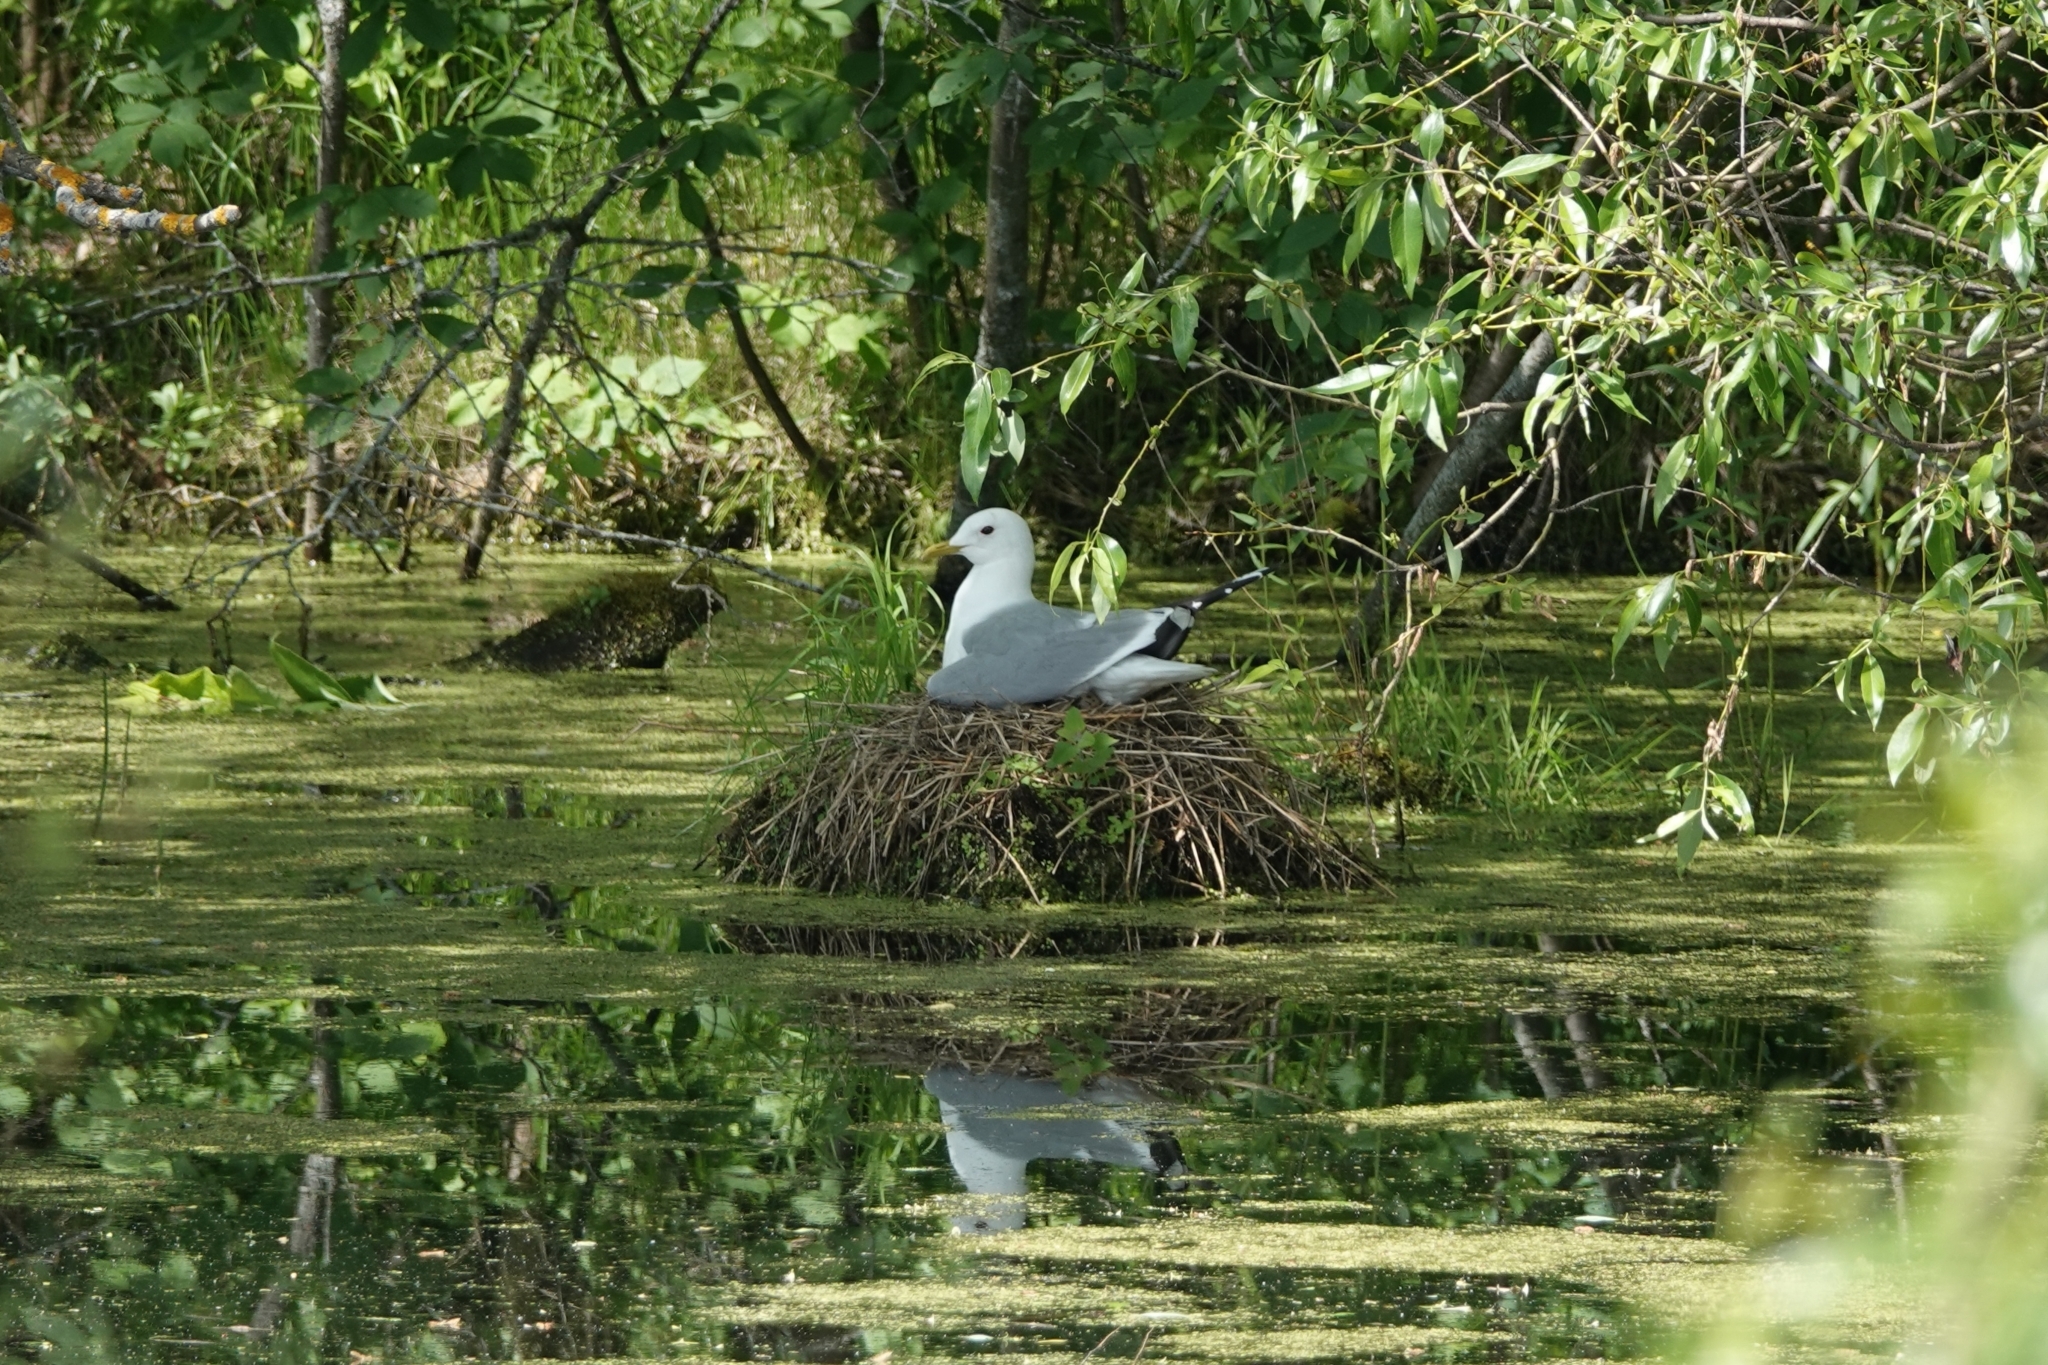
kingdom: Animalia
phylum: Chordata
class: Aves
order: Charadriiformes
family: Laridae
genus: Larus
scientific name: Larus canus
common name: Mew gull
